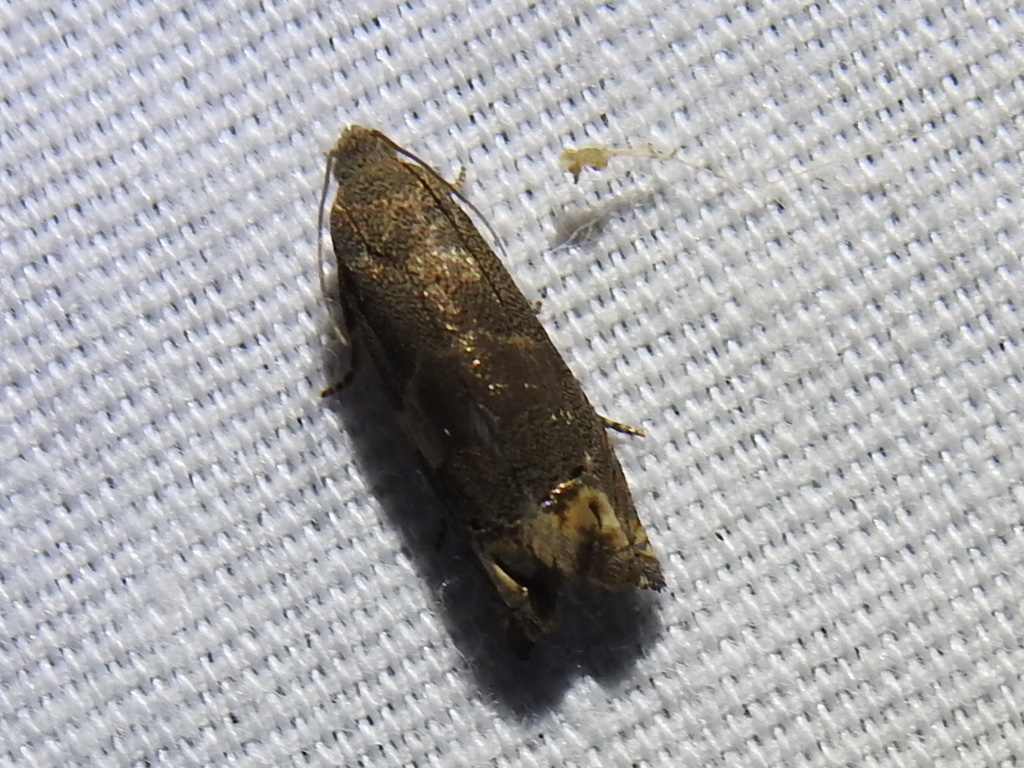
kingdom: Animalia
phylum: Arthropoda
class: Insecta
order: Lepidoptera
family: Tortricidae
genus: Epiblema
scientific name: Epiblema strenuana
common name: Ragweed borer moth
